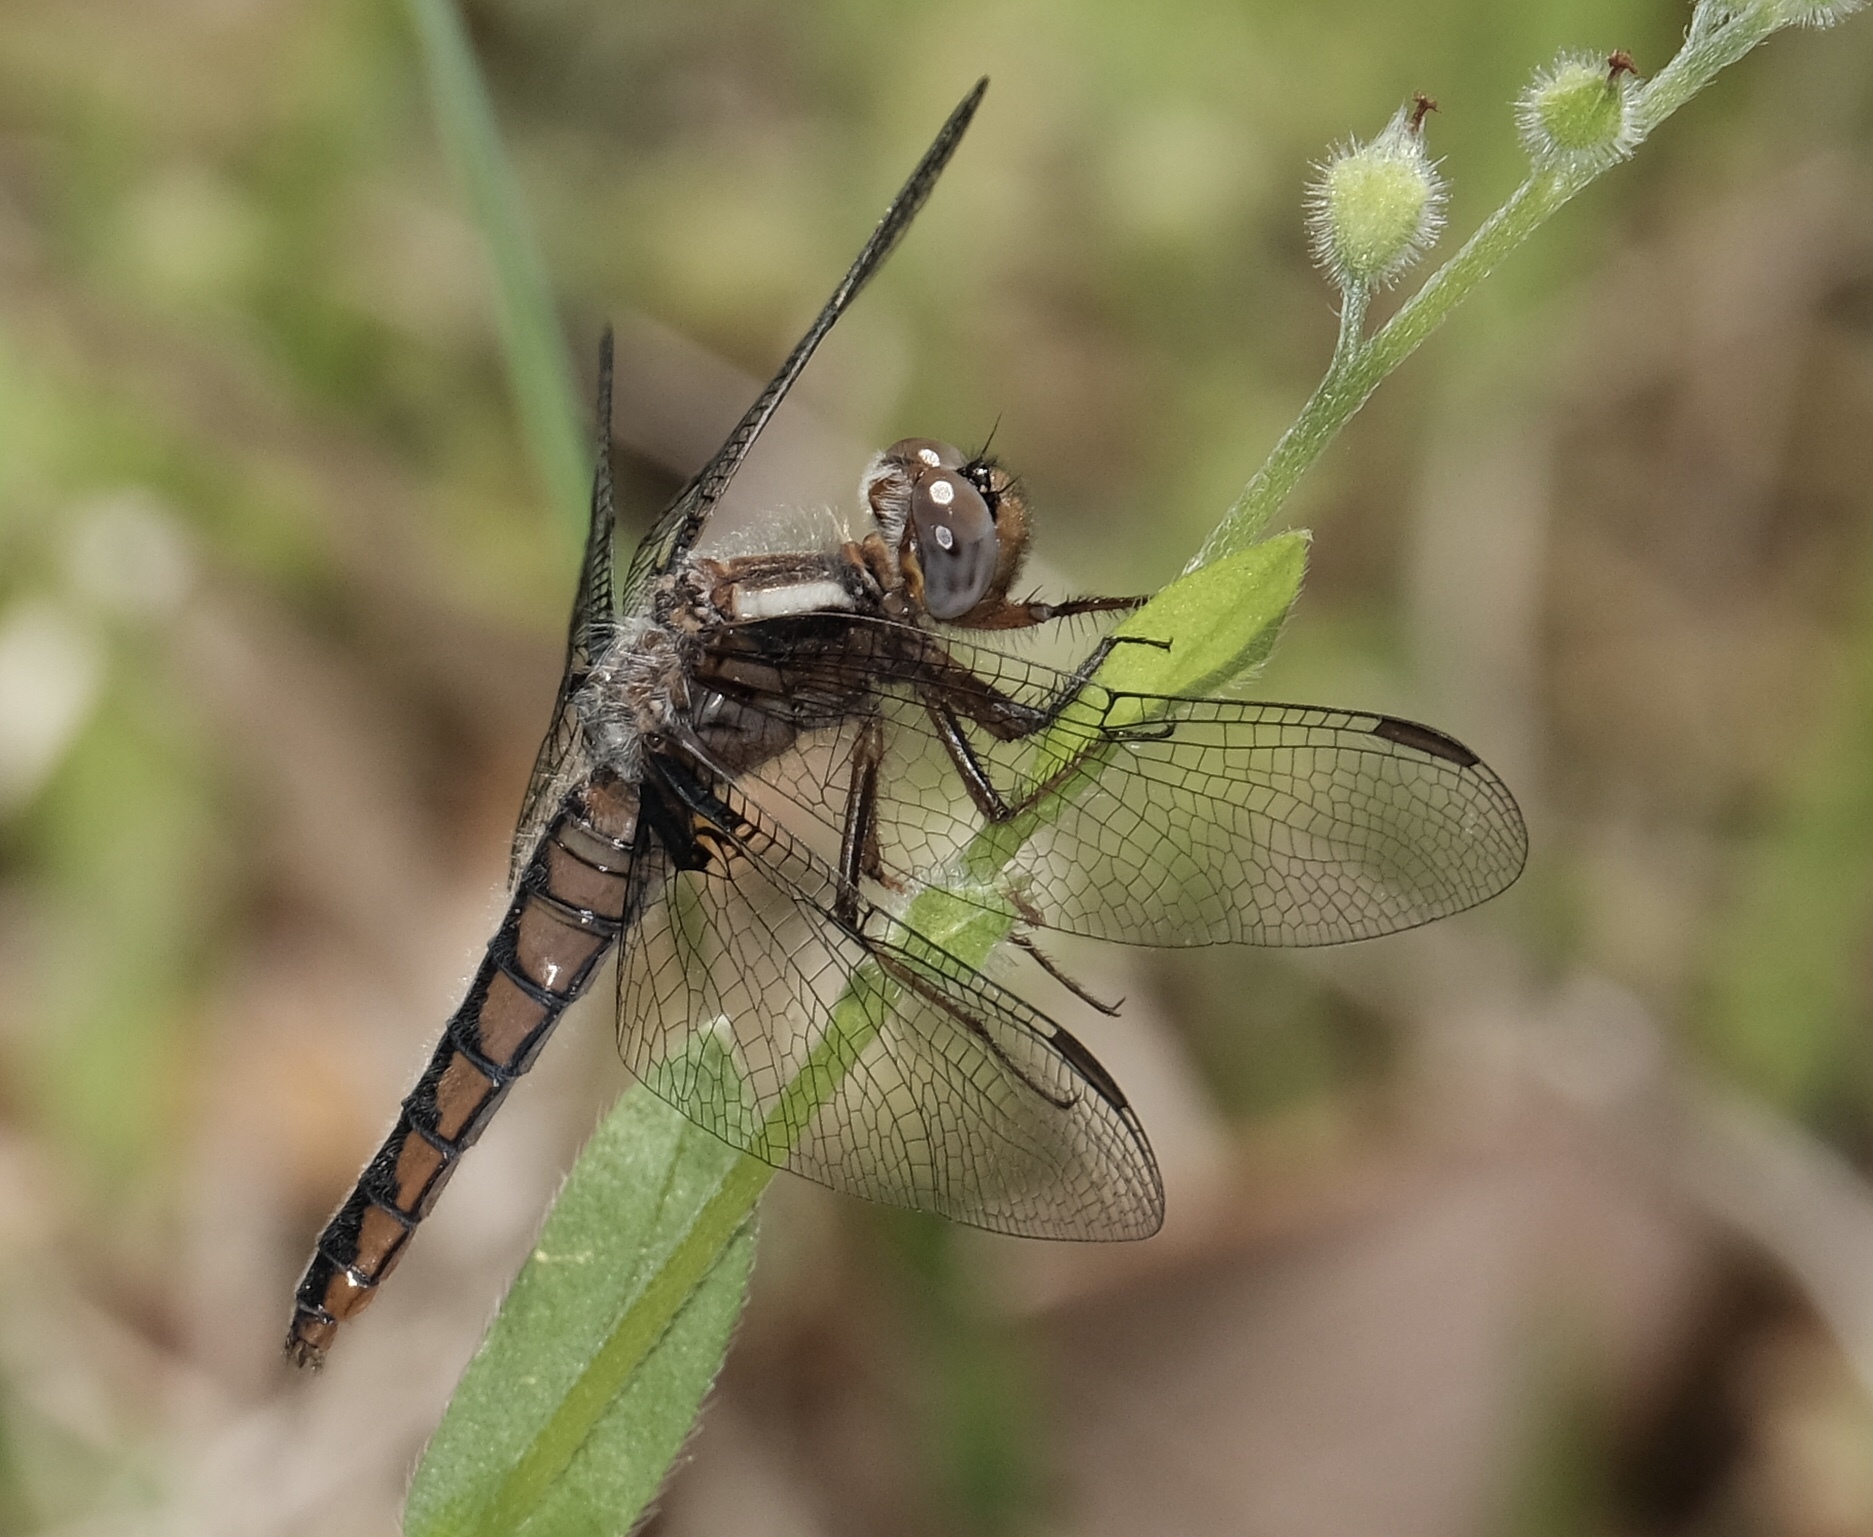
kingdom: Animalia
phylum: Arthropoda
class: Insecta
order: Odonata
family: Libellulidae
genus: Ladona
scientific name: Ladona deplanata
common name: Blue corporal
